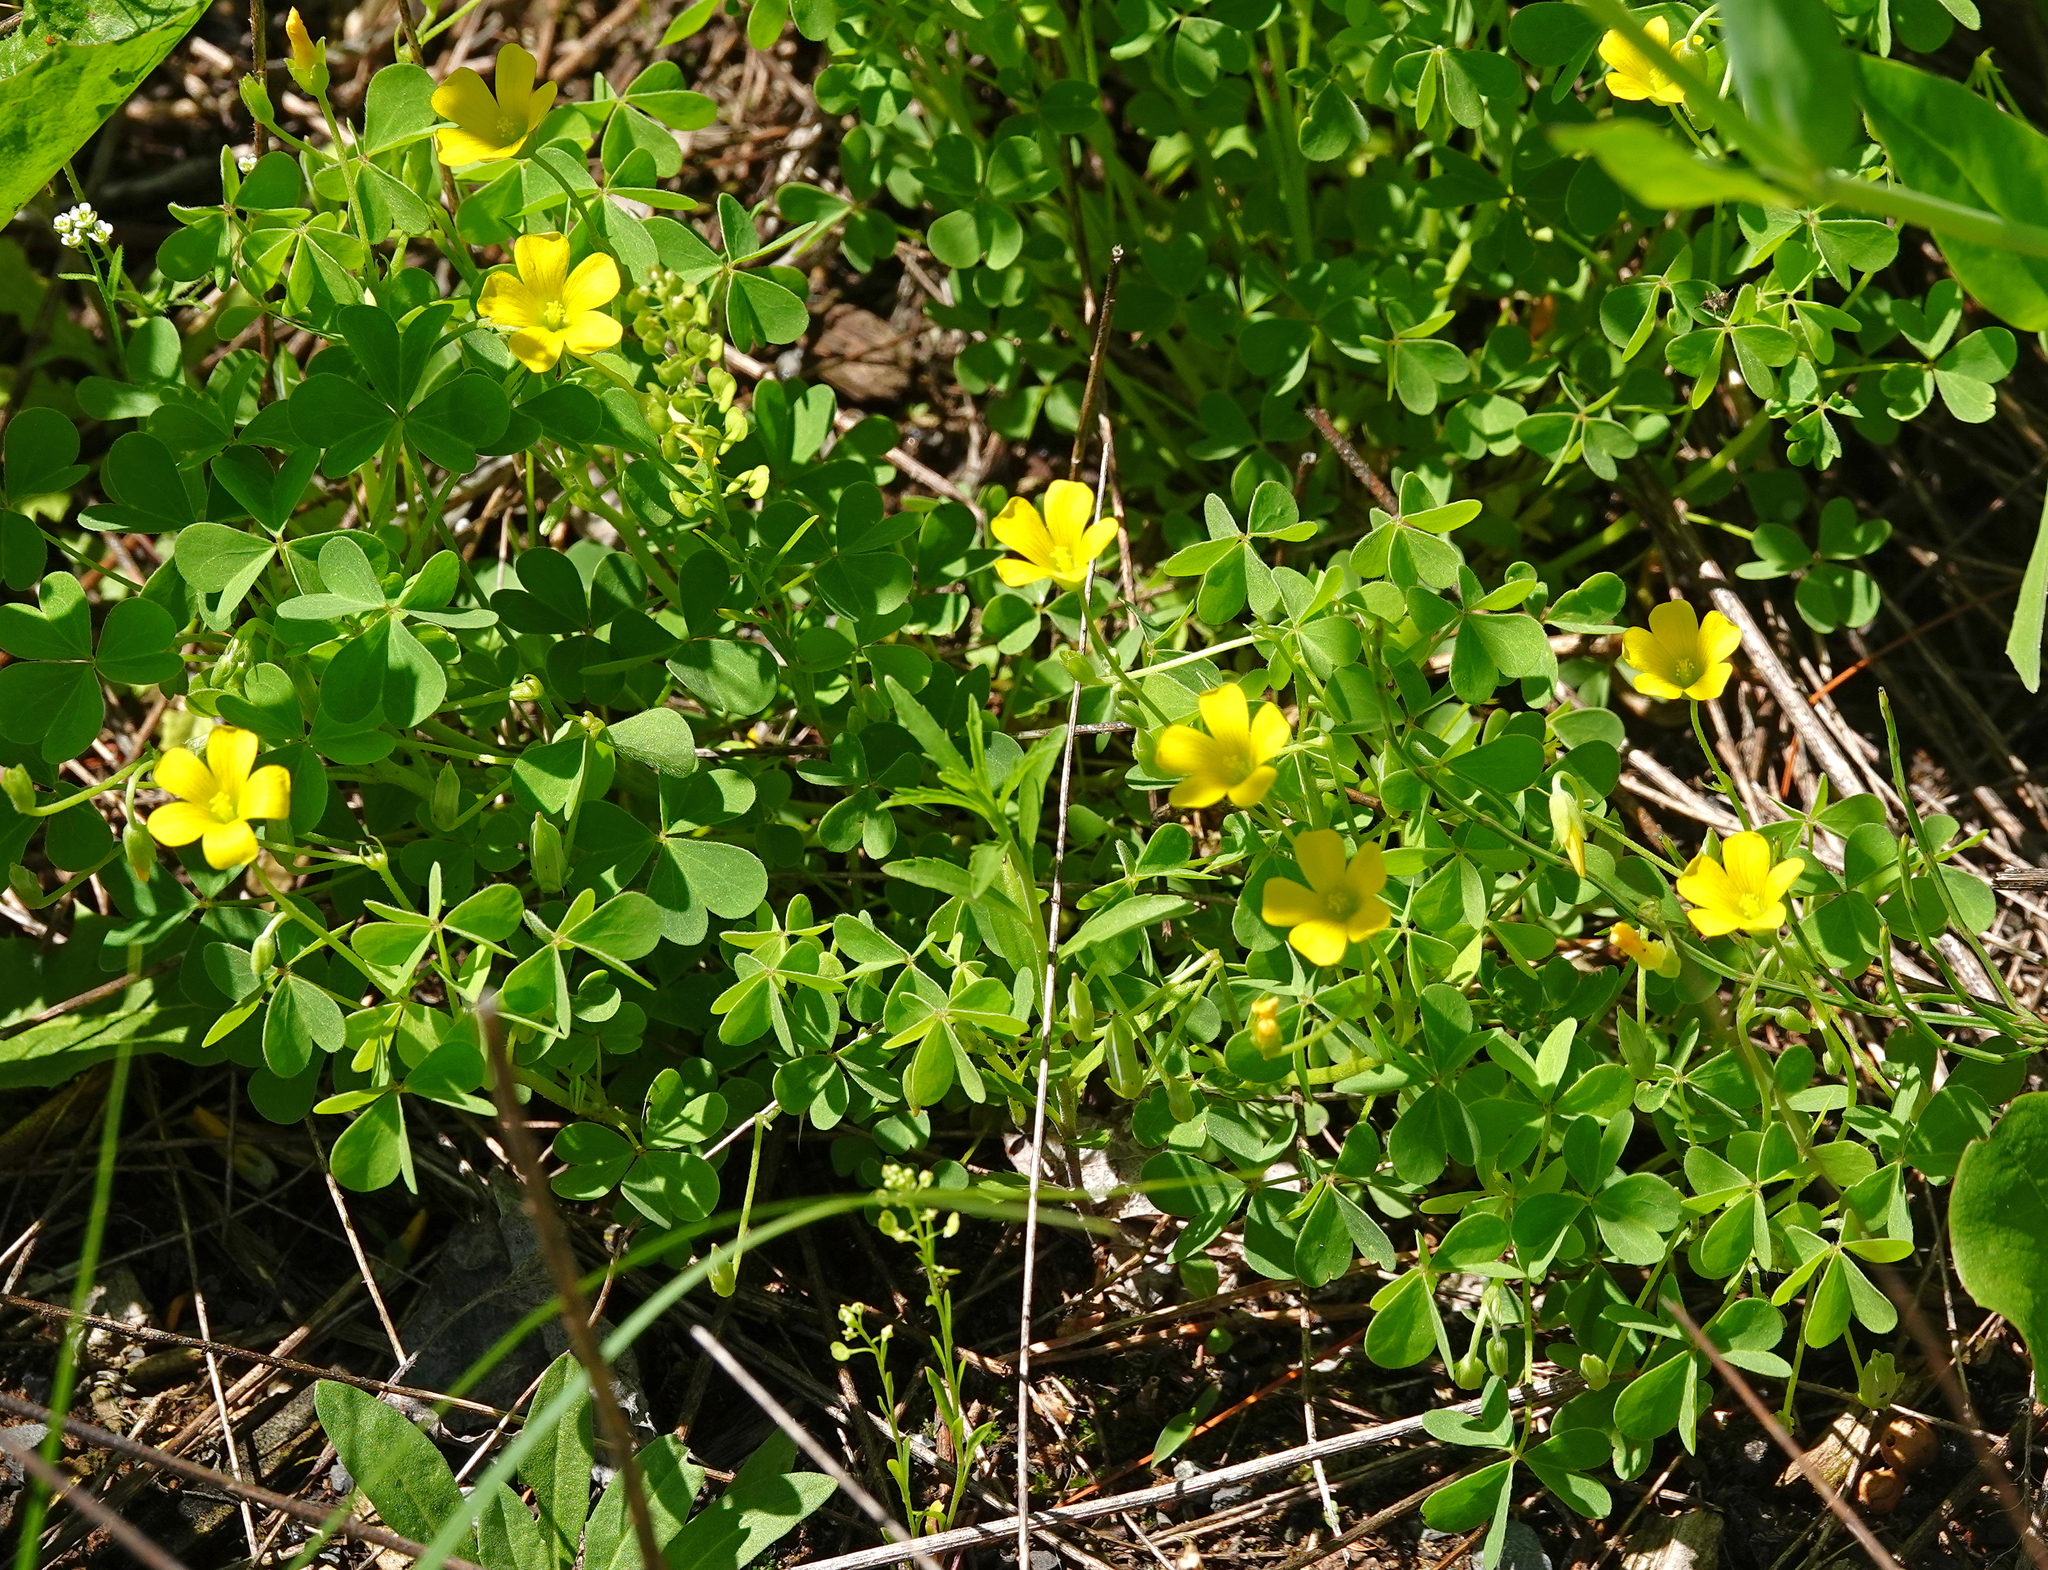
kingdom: Plantae
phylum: Tracheophyta
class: Magnoliopsida
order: Oxalidales
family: Oxalidaceae
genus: Oxalis
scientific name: Oxalis dillenii
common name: Sussex yellow-sorrel
